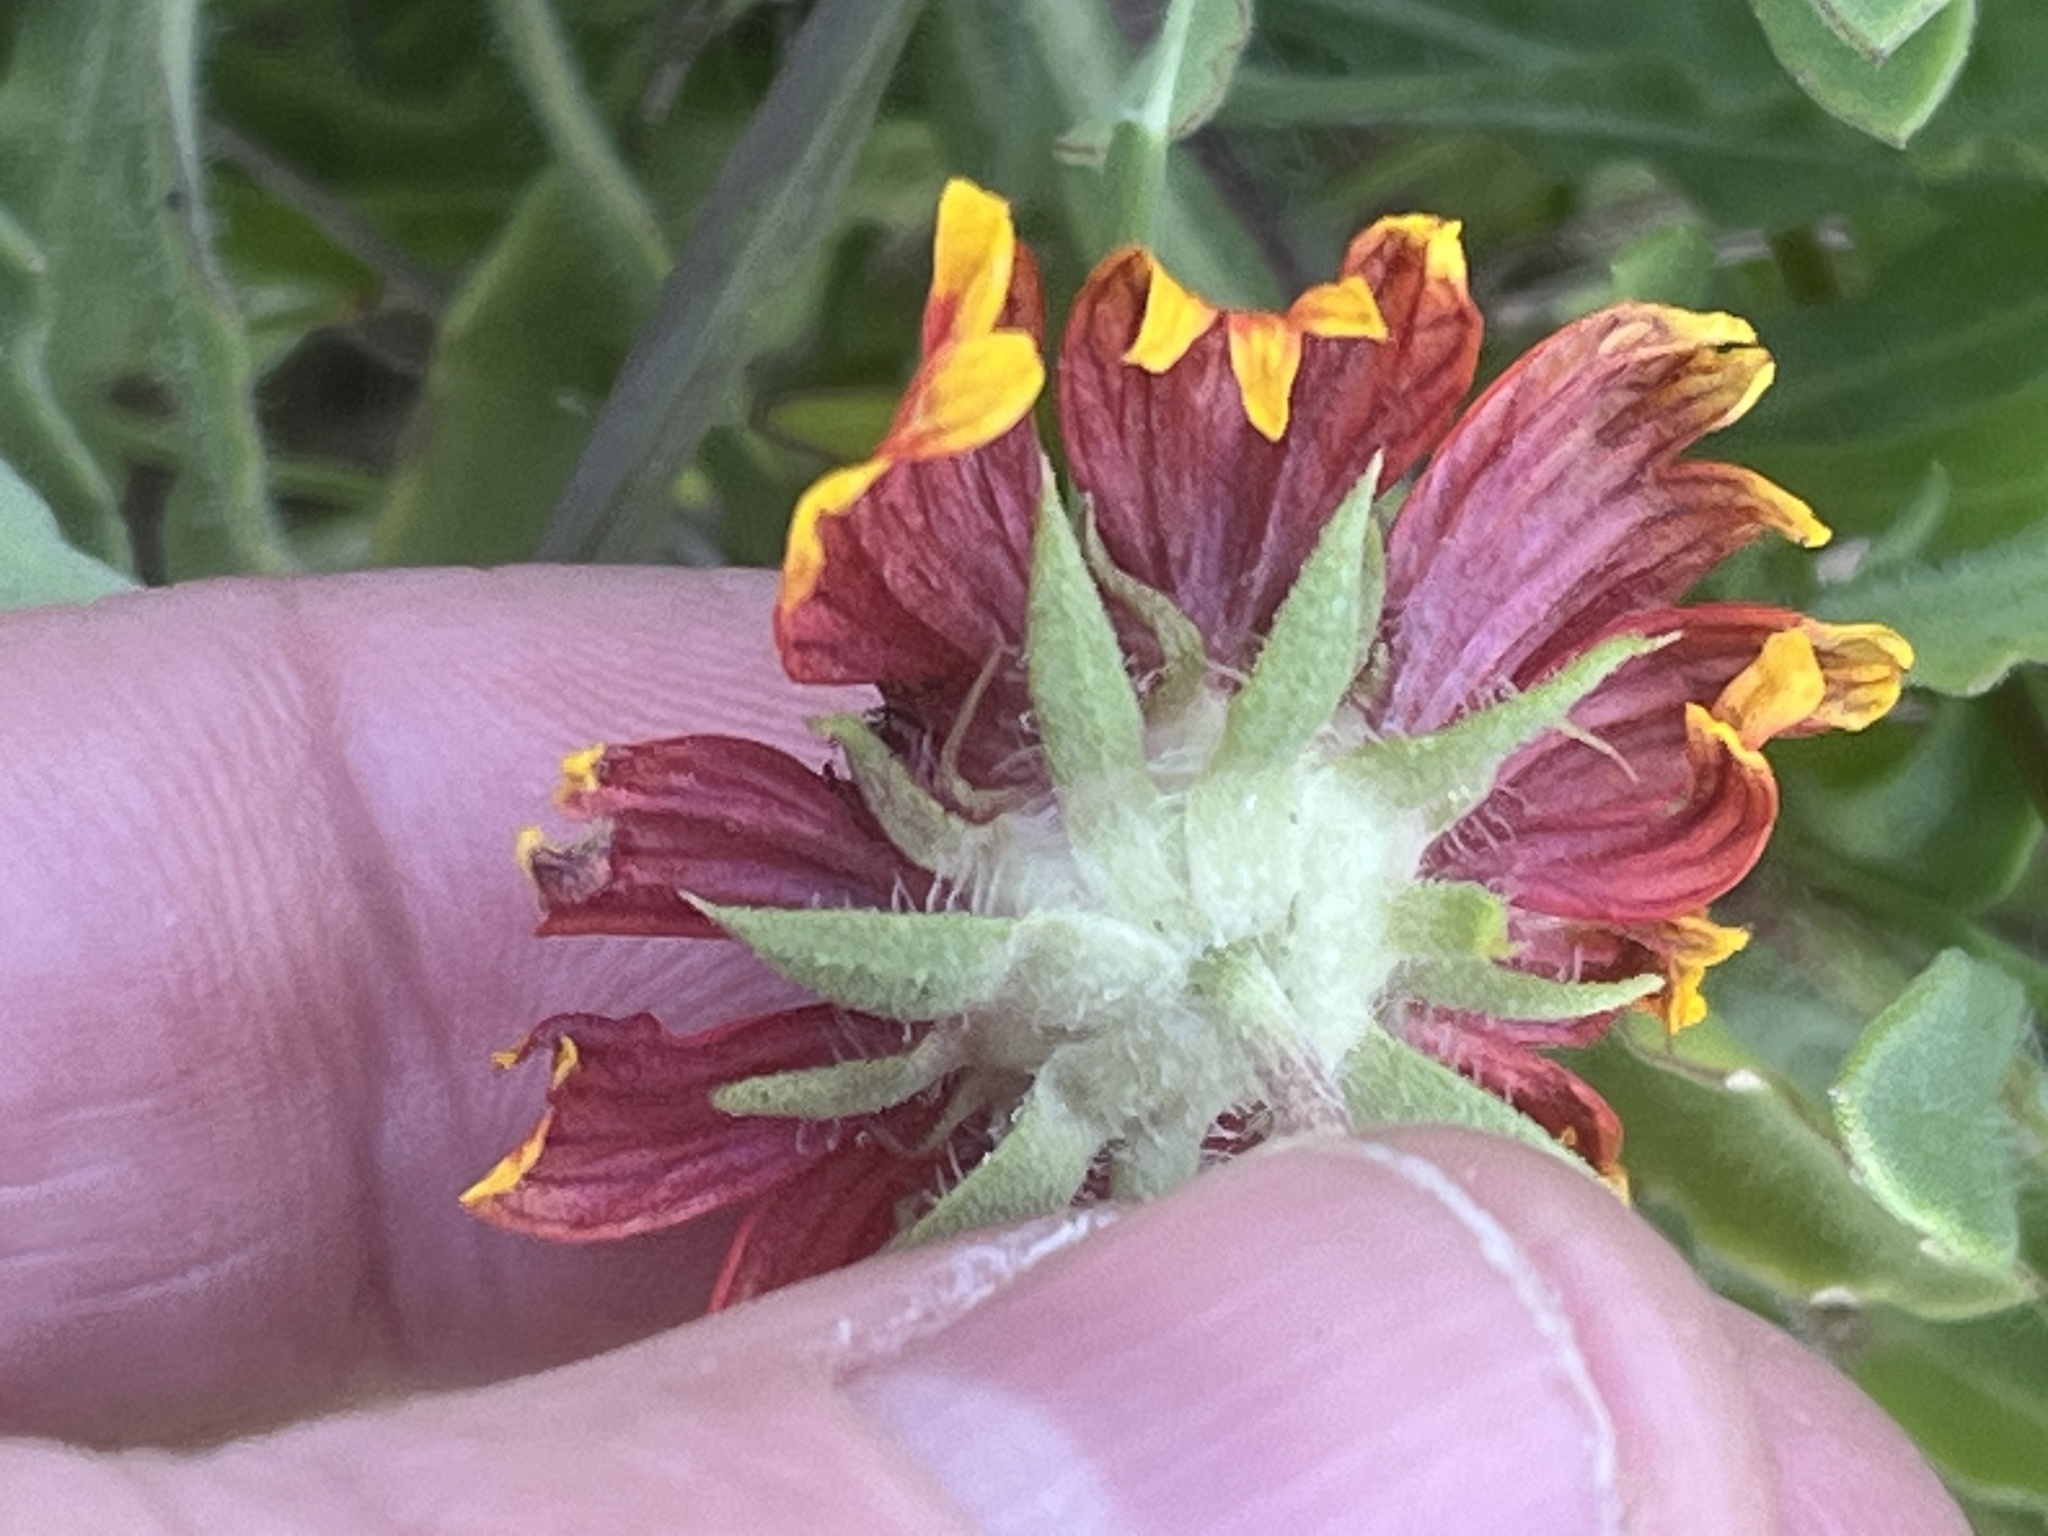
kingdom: Plantae
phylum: Tracheophyta
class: Magnoliopsida
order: Asterales
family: Asteraceae
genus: Gaillardia
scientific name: Gaillardia pulchella
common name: Firewheel
